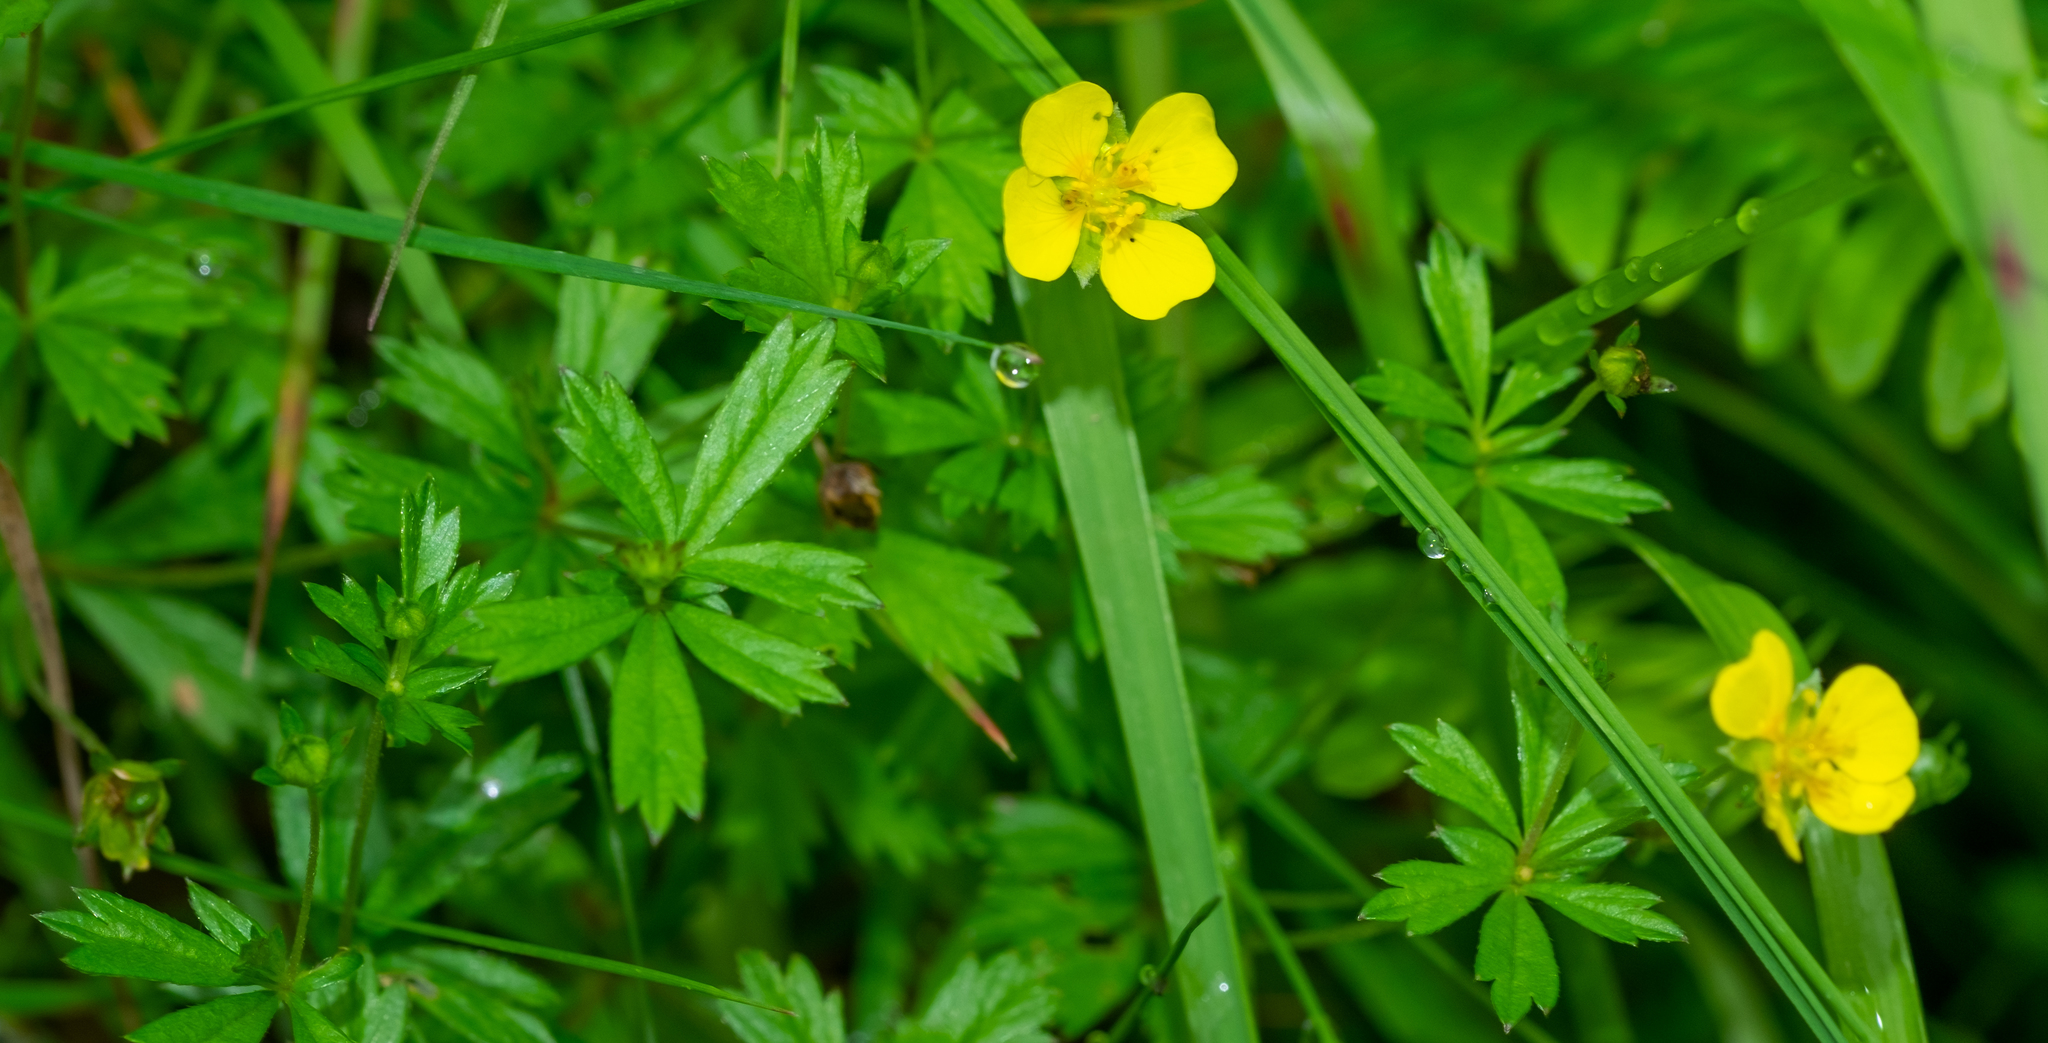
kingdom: Plantae
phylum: Tracheophyta
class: Magnoliopsida
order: Rosales
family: Rosaceae
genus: Potentilla
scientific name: Potentilla erecta
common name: Tormentil
